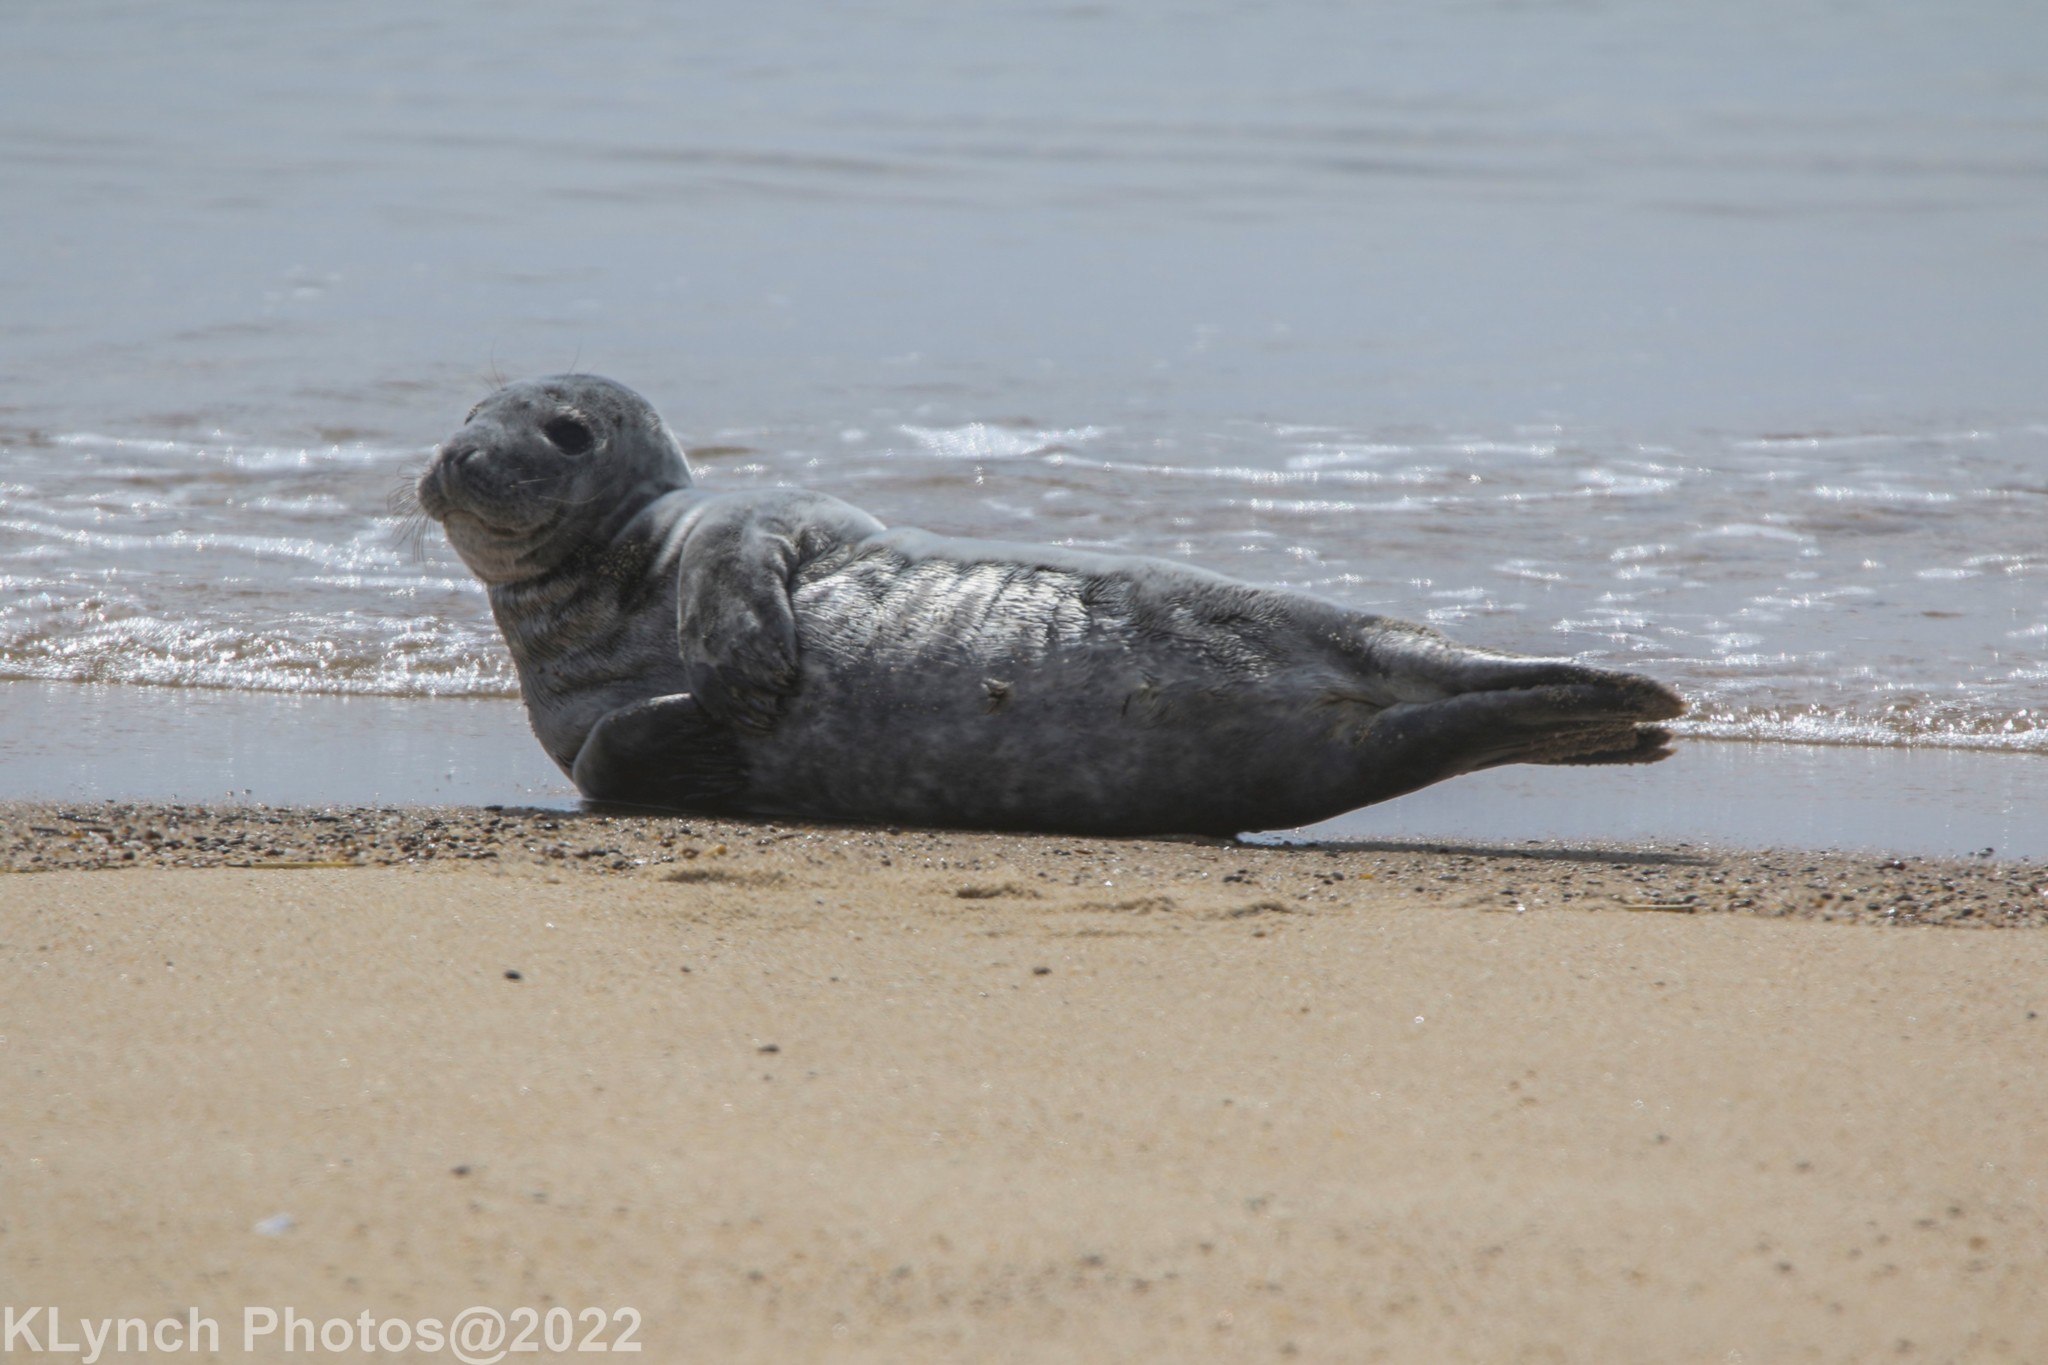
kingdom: Animalia
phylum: Chordata
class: Mammalia
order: Carnivora
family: Phocidae
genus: Halichoerus
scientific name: Halichoerus grypus
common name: Grey seal
